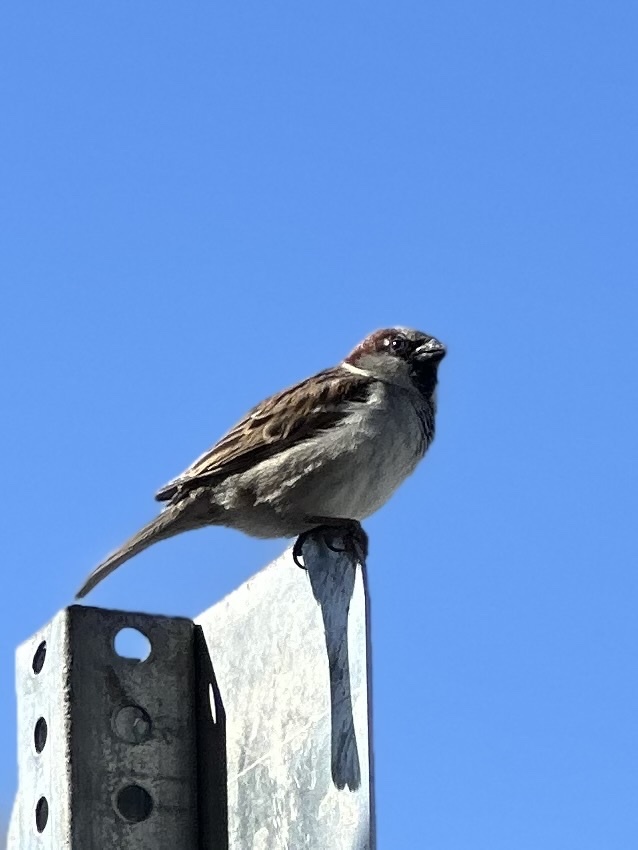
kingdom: Animalia
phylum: Chordata
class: Aves
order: Passeriformes
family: Passeridae
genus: Passer
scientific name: Passer domesticus
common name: House sparrow
